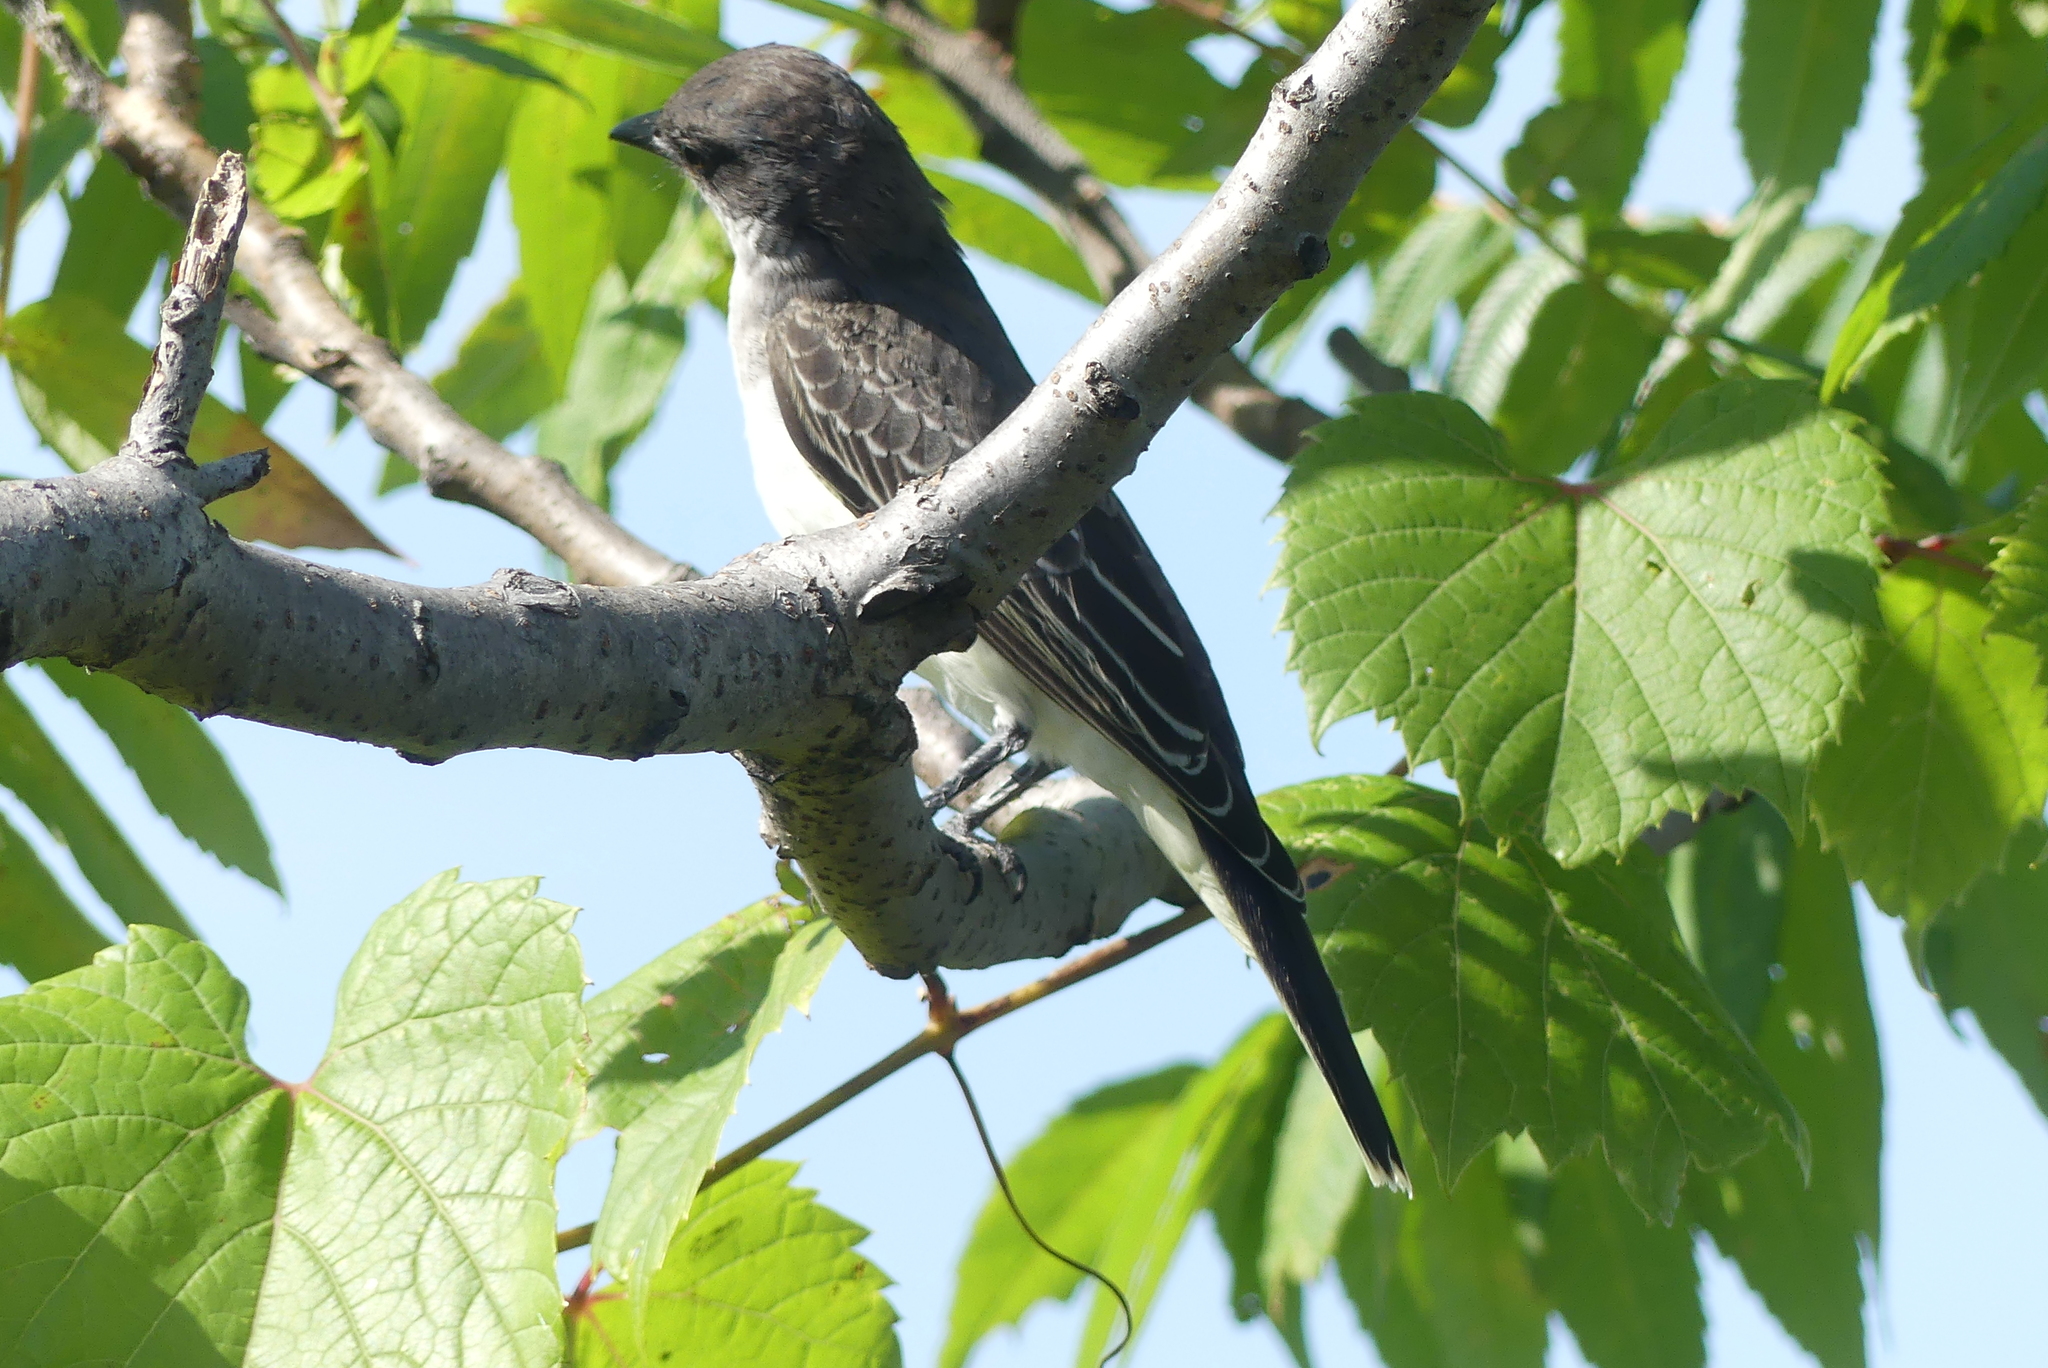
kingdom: Animalia
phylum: Chordata
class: Aves
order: Passeriformes
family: Tyrannidae
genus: Tyrannus
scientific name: Tyrannus tyrannus
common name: Eastern kingbird
